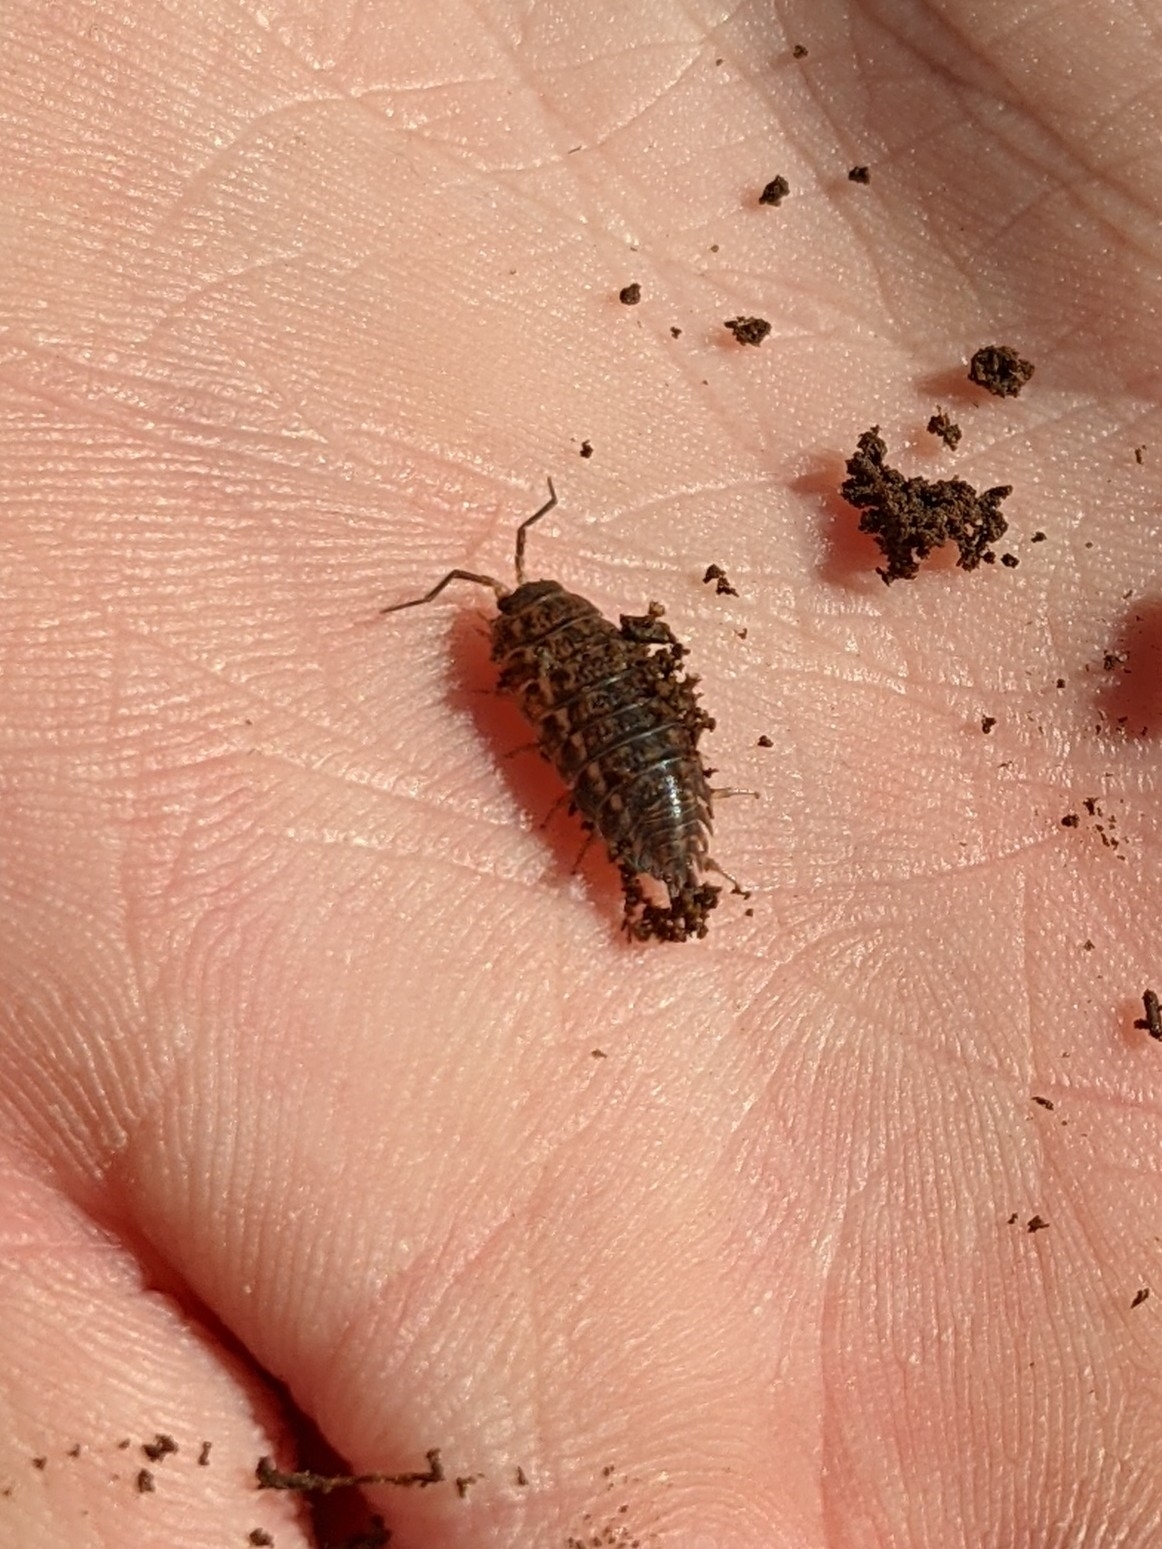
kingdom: Animalia
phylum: Arthropoda
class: Malacostraca
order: Isopoda
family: Trachelipodidae
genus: Trachelipus
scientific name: Trachelipus rathkii
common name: Isopod
